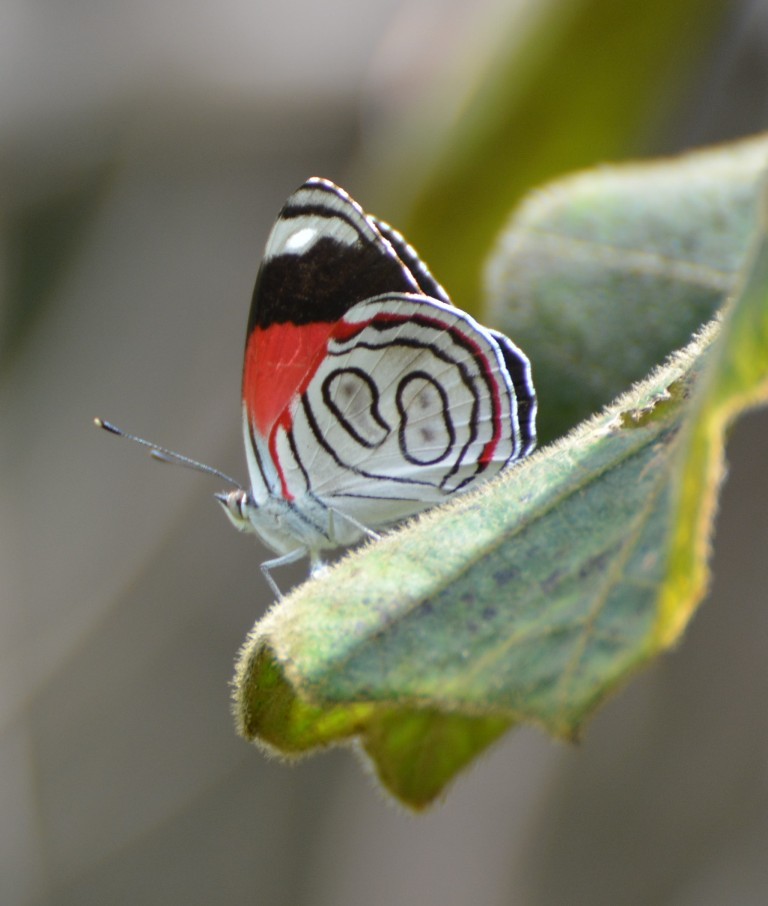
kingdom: Animalia
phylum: Arthropoda
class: Insecta
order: Lepidoptera
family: Nymphalidae
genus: Diaethria
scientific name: Diaethria astala
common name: Navy eighty-eight
